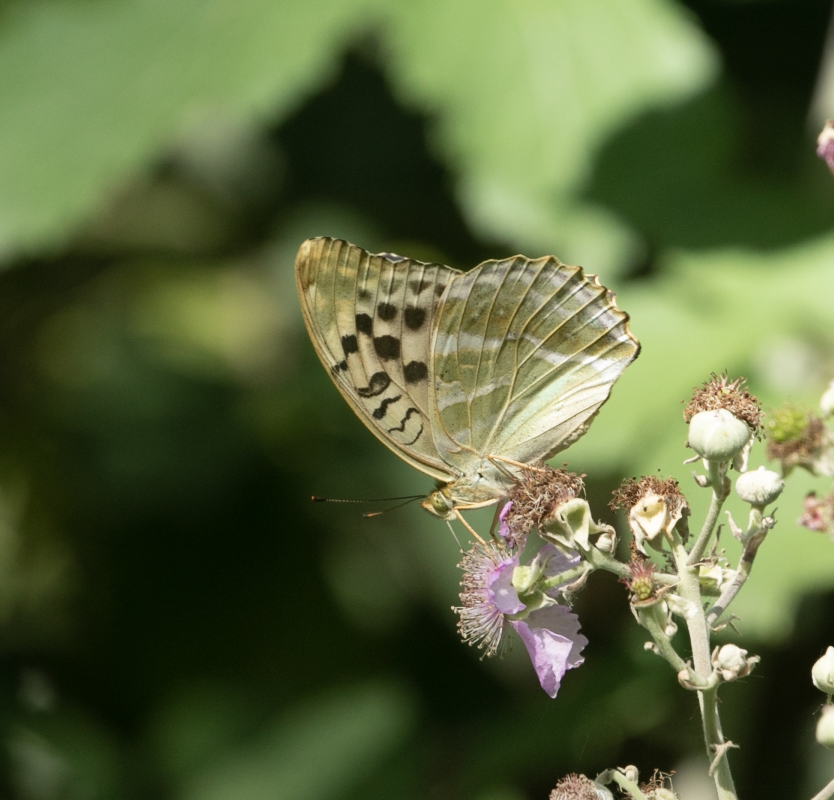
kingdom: Animalia
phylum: Arthropoda
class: Insecta
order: Lepidoptera
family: Nymphalidae
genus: Argynnis
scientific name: Argynnis paphia
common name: Silver-washed fritillary
